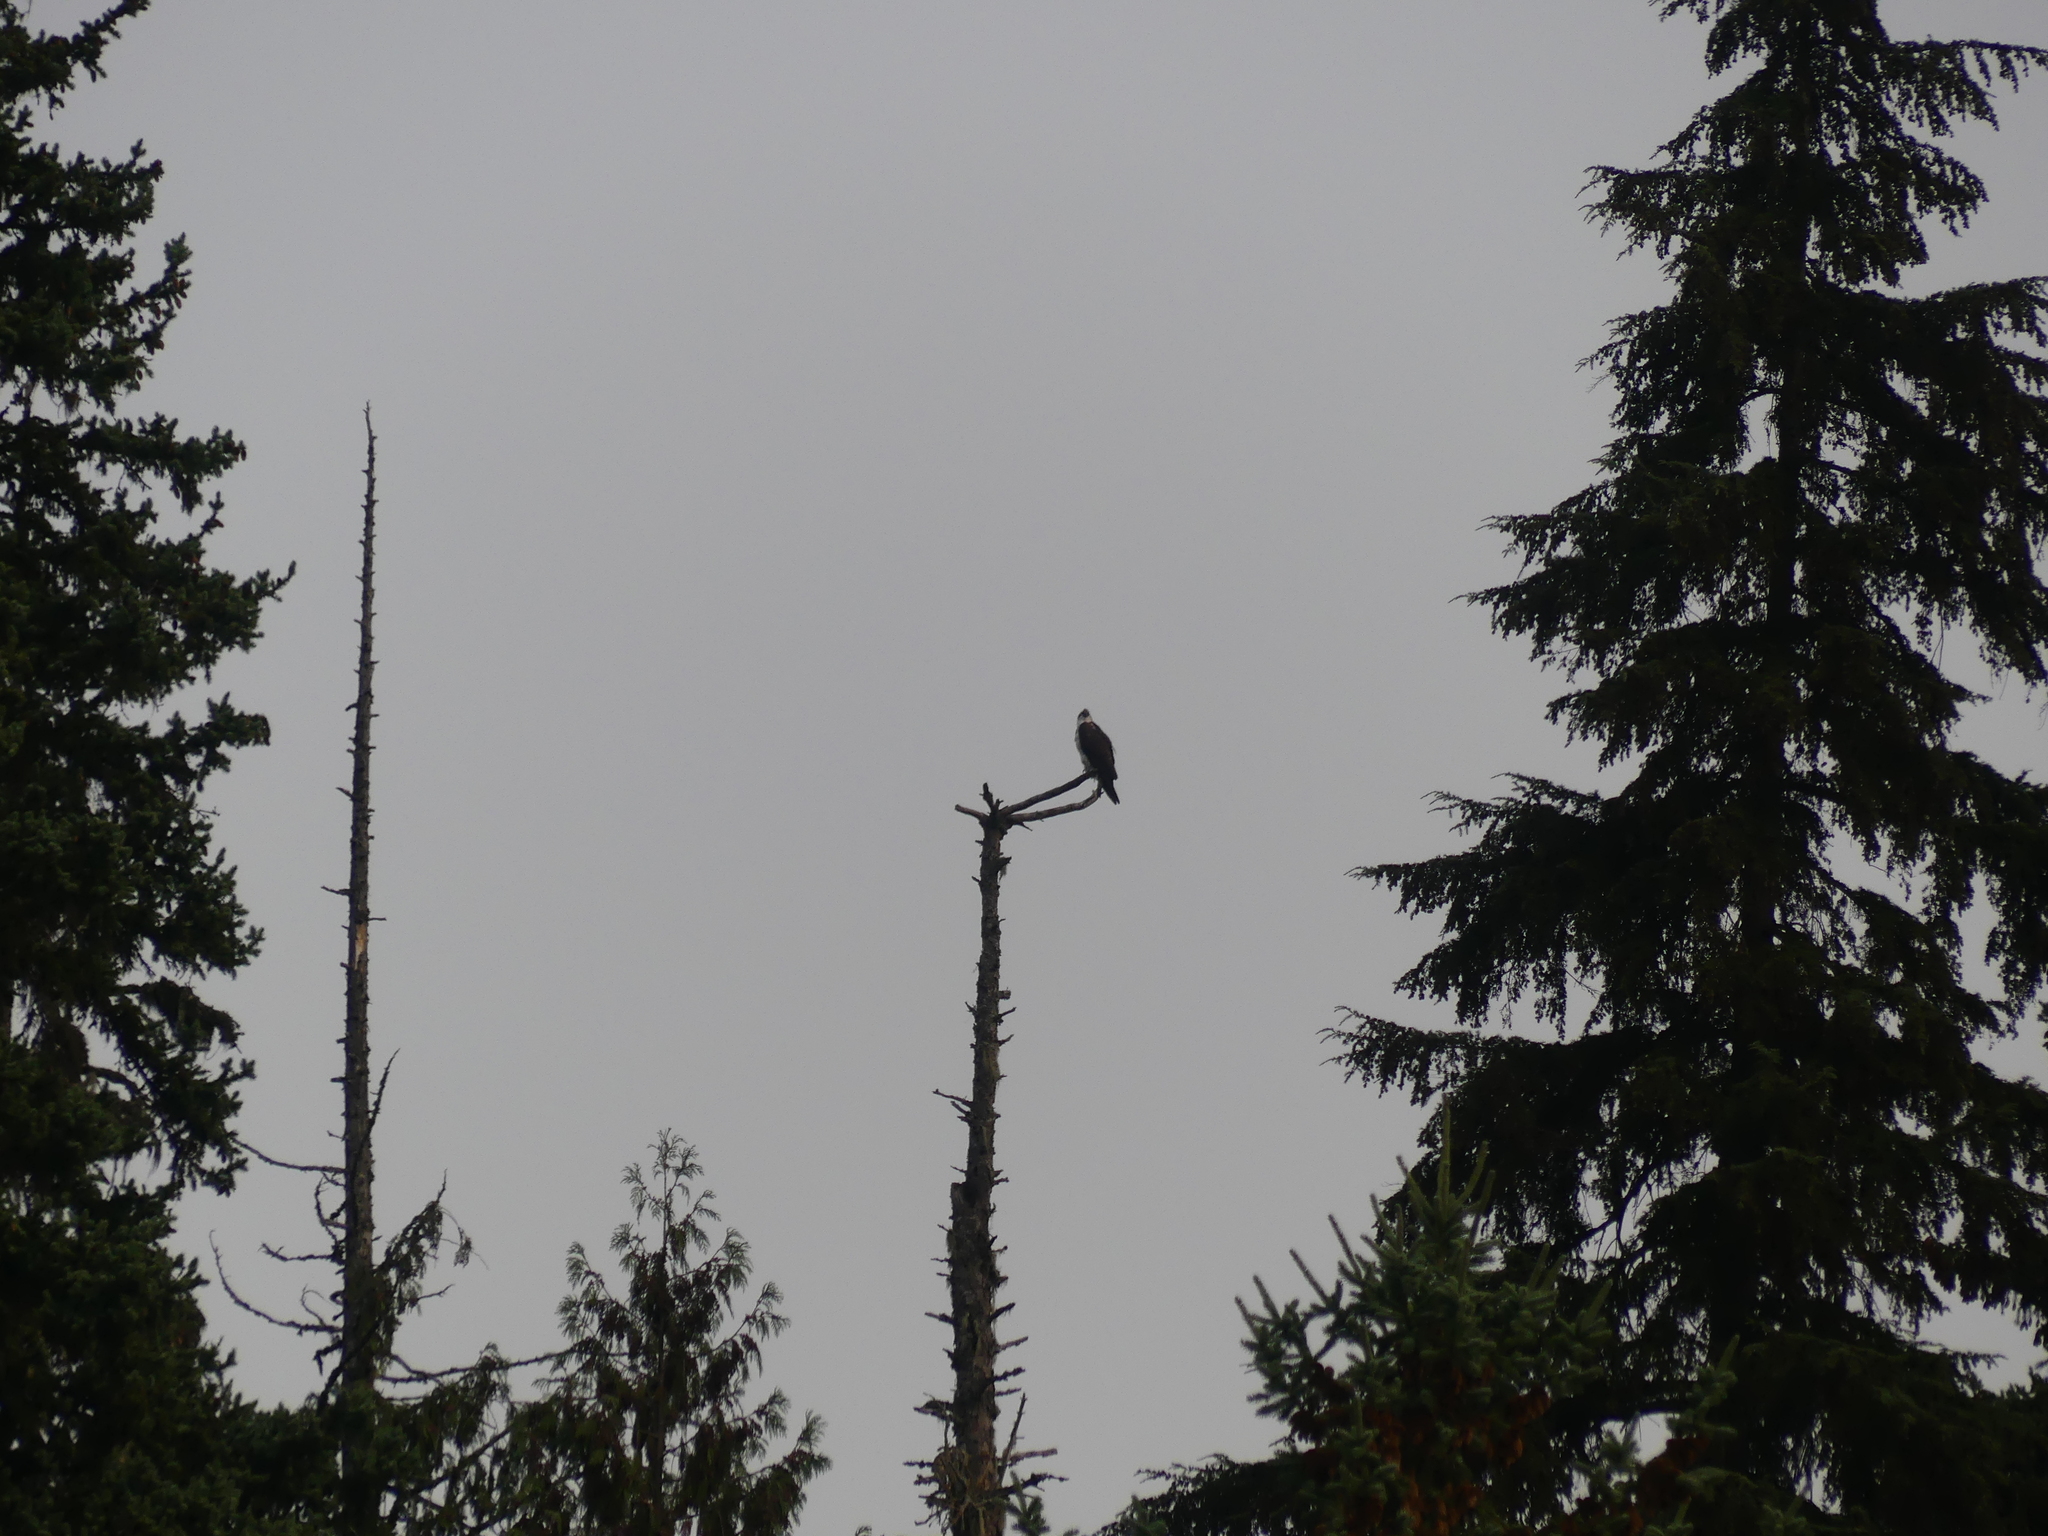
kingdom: Animalia
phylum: Chordata
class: Aves
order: Accipitriformes
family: Pandionidae
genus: Pandion
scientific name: Pandion haliaetus
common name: Osprey
